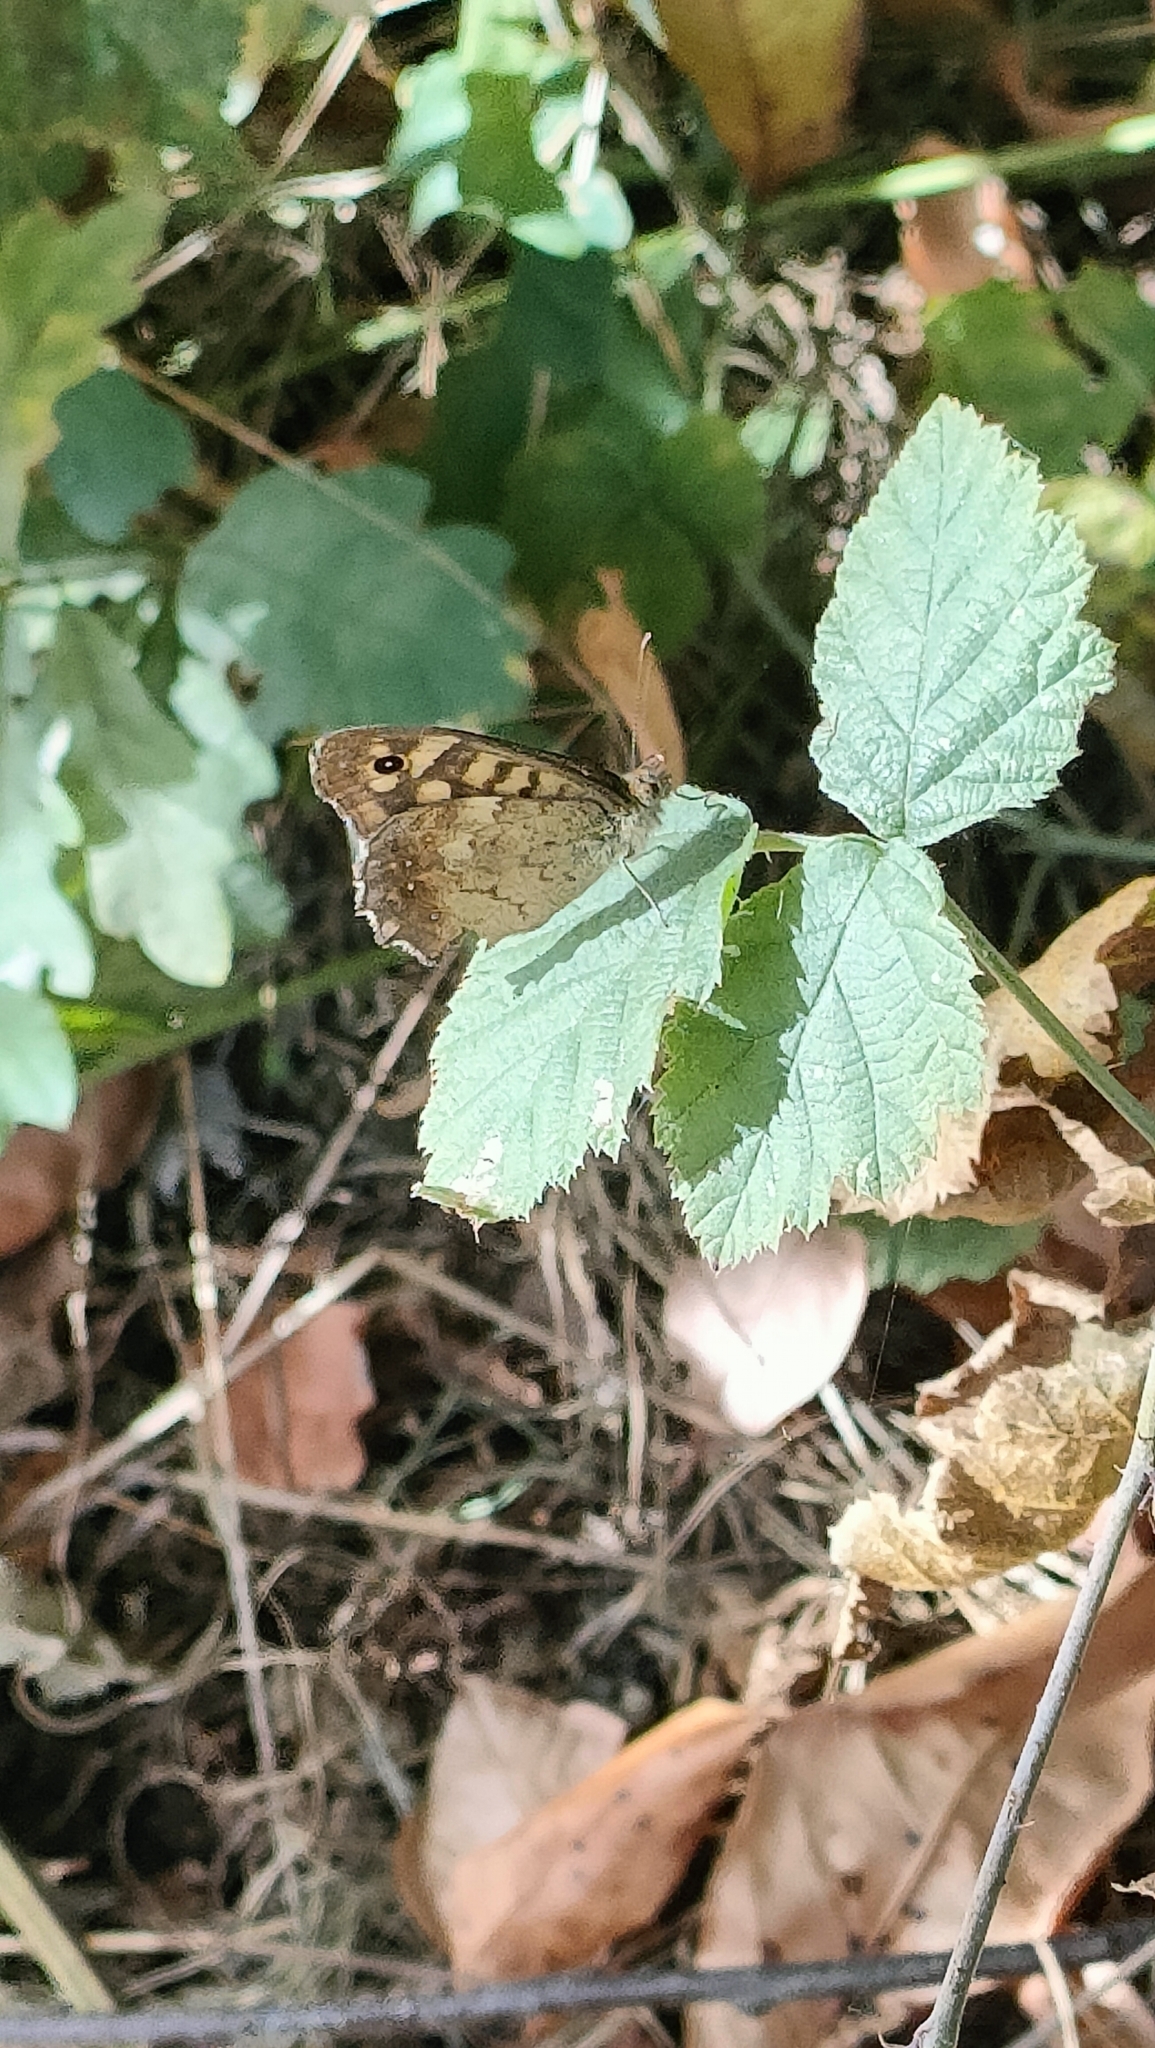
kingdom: Animalia
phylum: Arthropoda
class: Insecta
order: Lepidoptera
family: Nymphalidae
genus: Pararge
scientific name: Pararge aegeria
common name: Speckled wood
